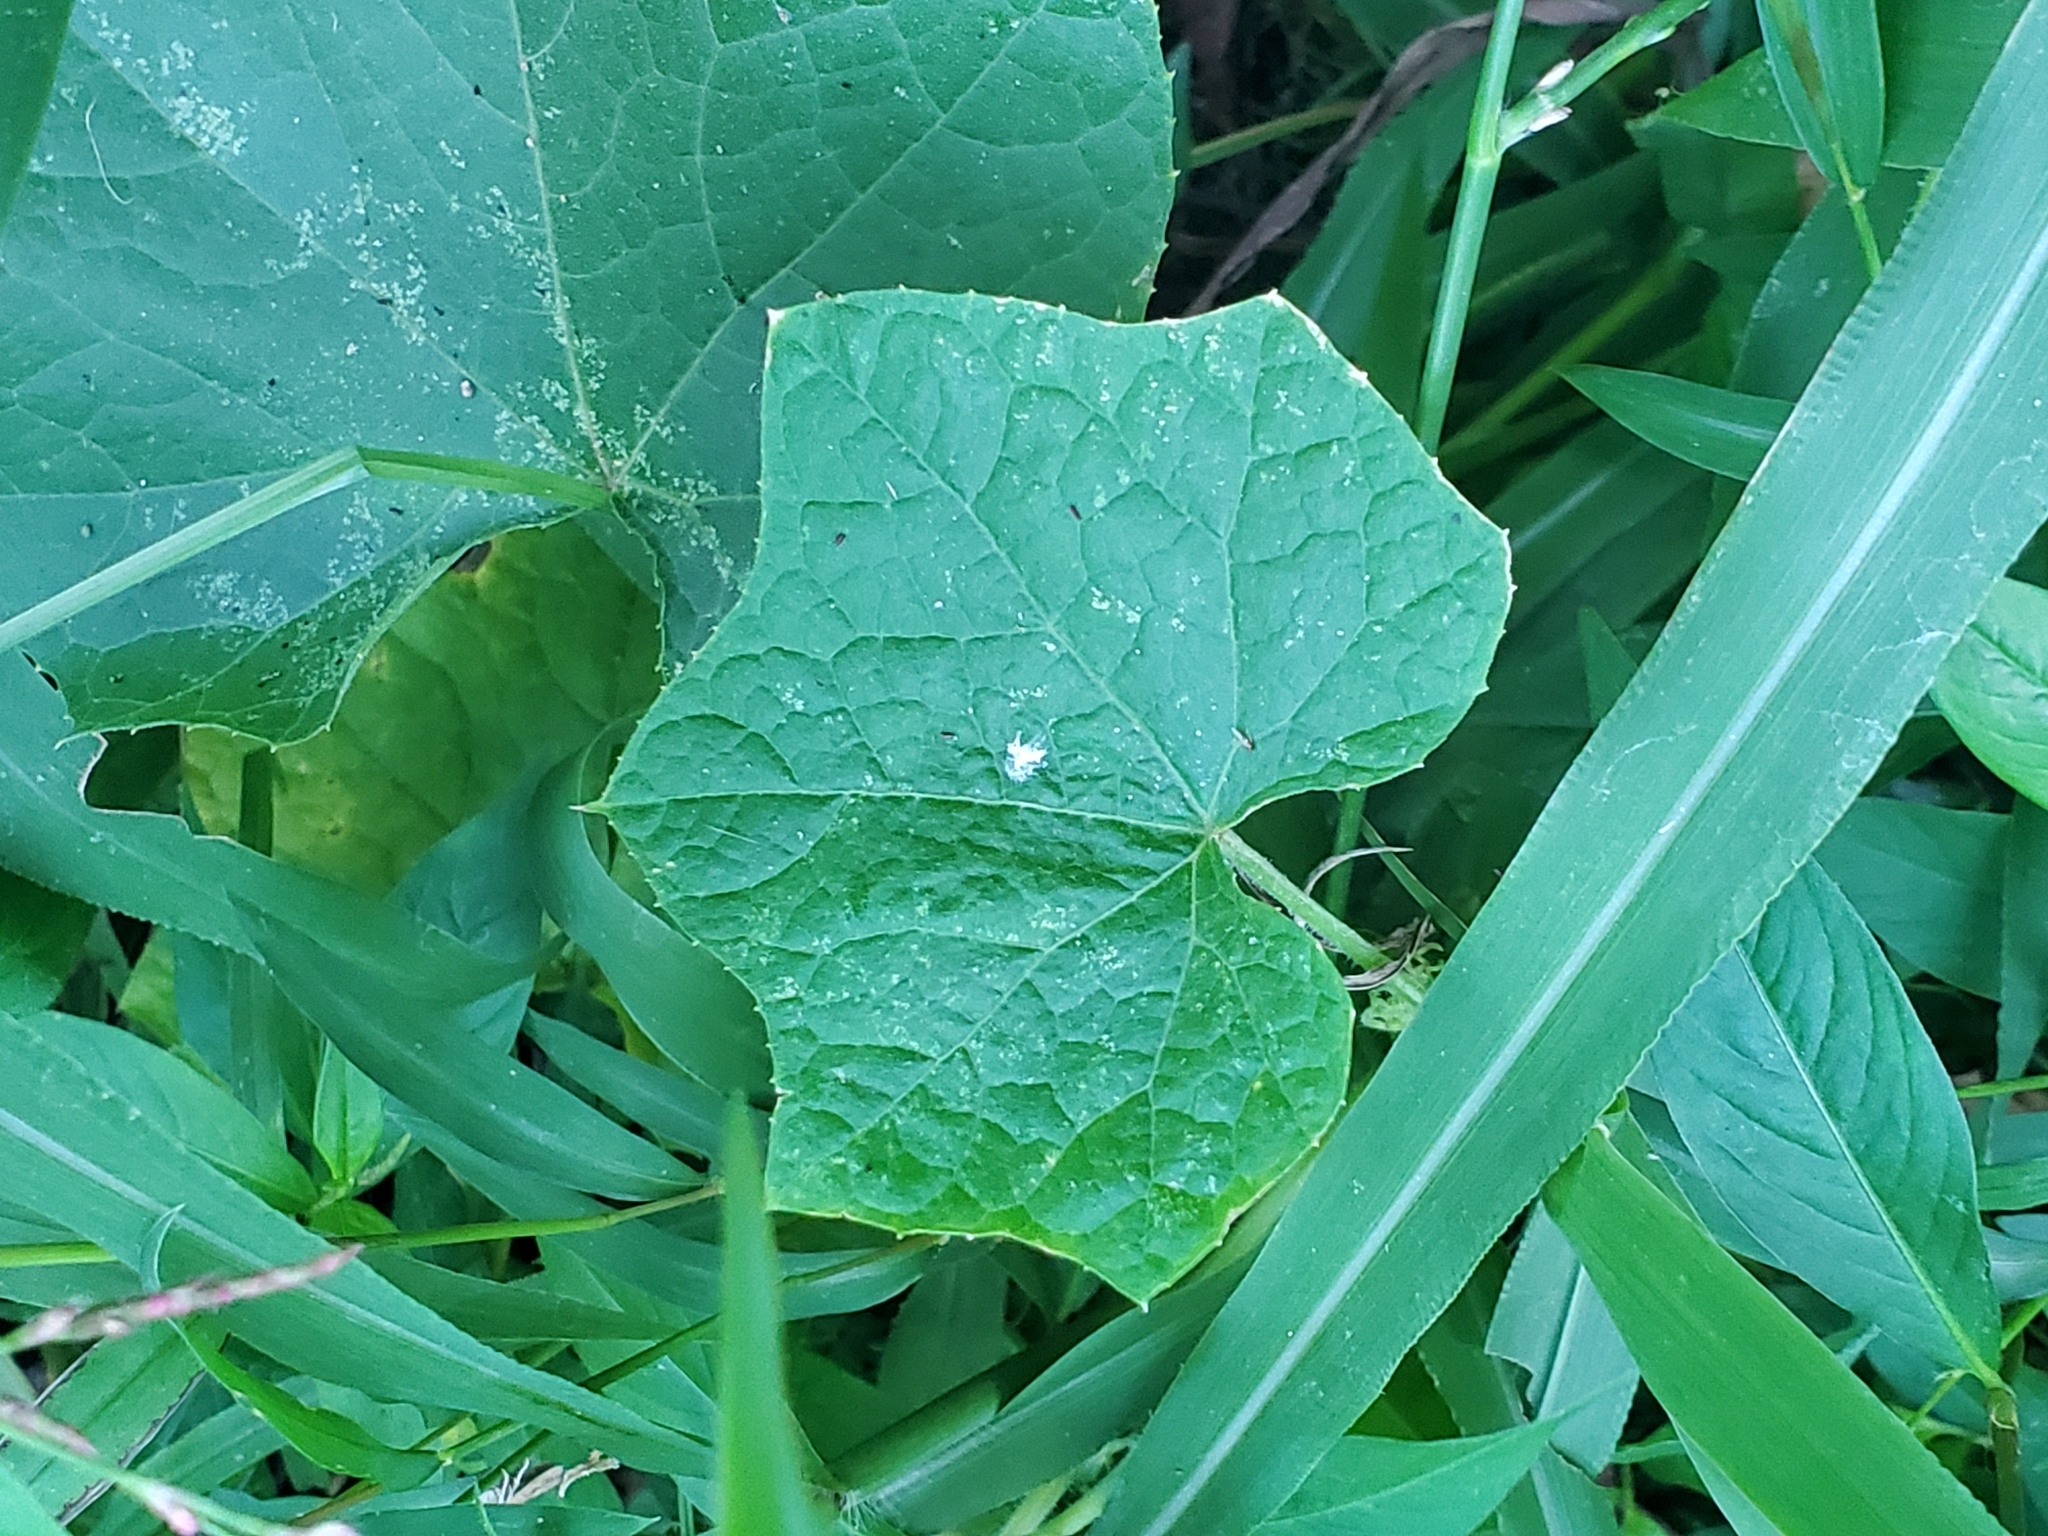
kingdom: Plantae
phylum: Tracheophyta
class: Magnoliopsida
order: Cucurbitales
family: Cucurbitaceae
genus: Sicyos
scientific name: Sicyos angulatus
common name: Angled burr cucumber
